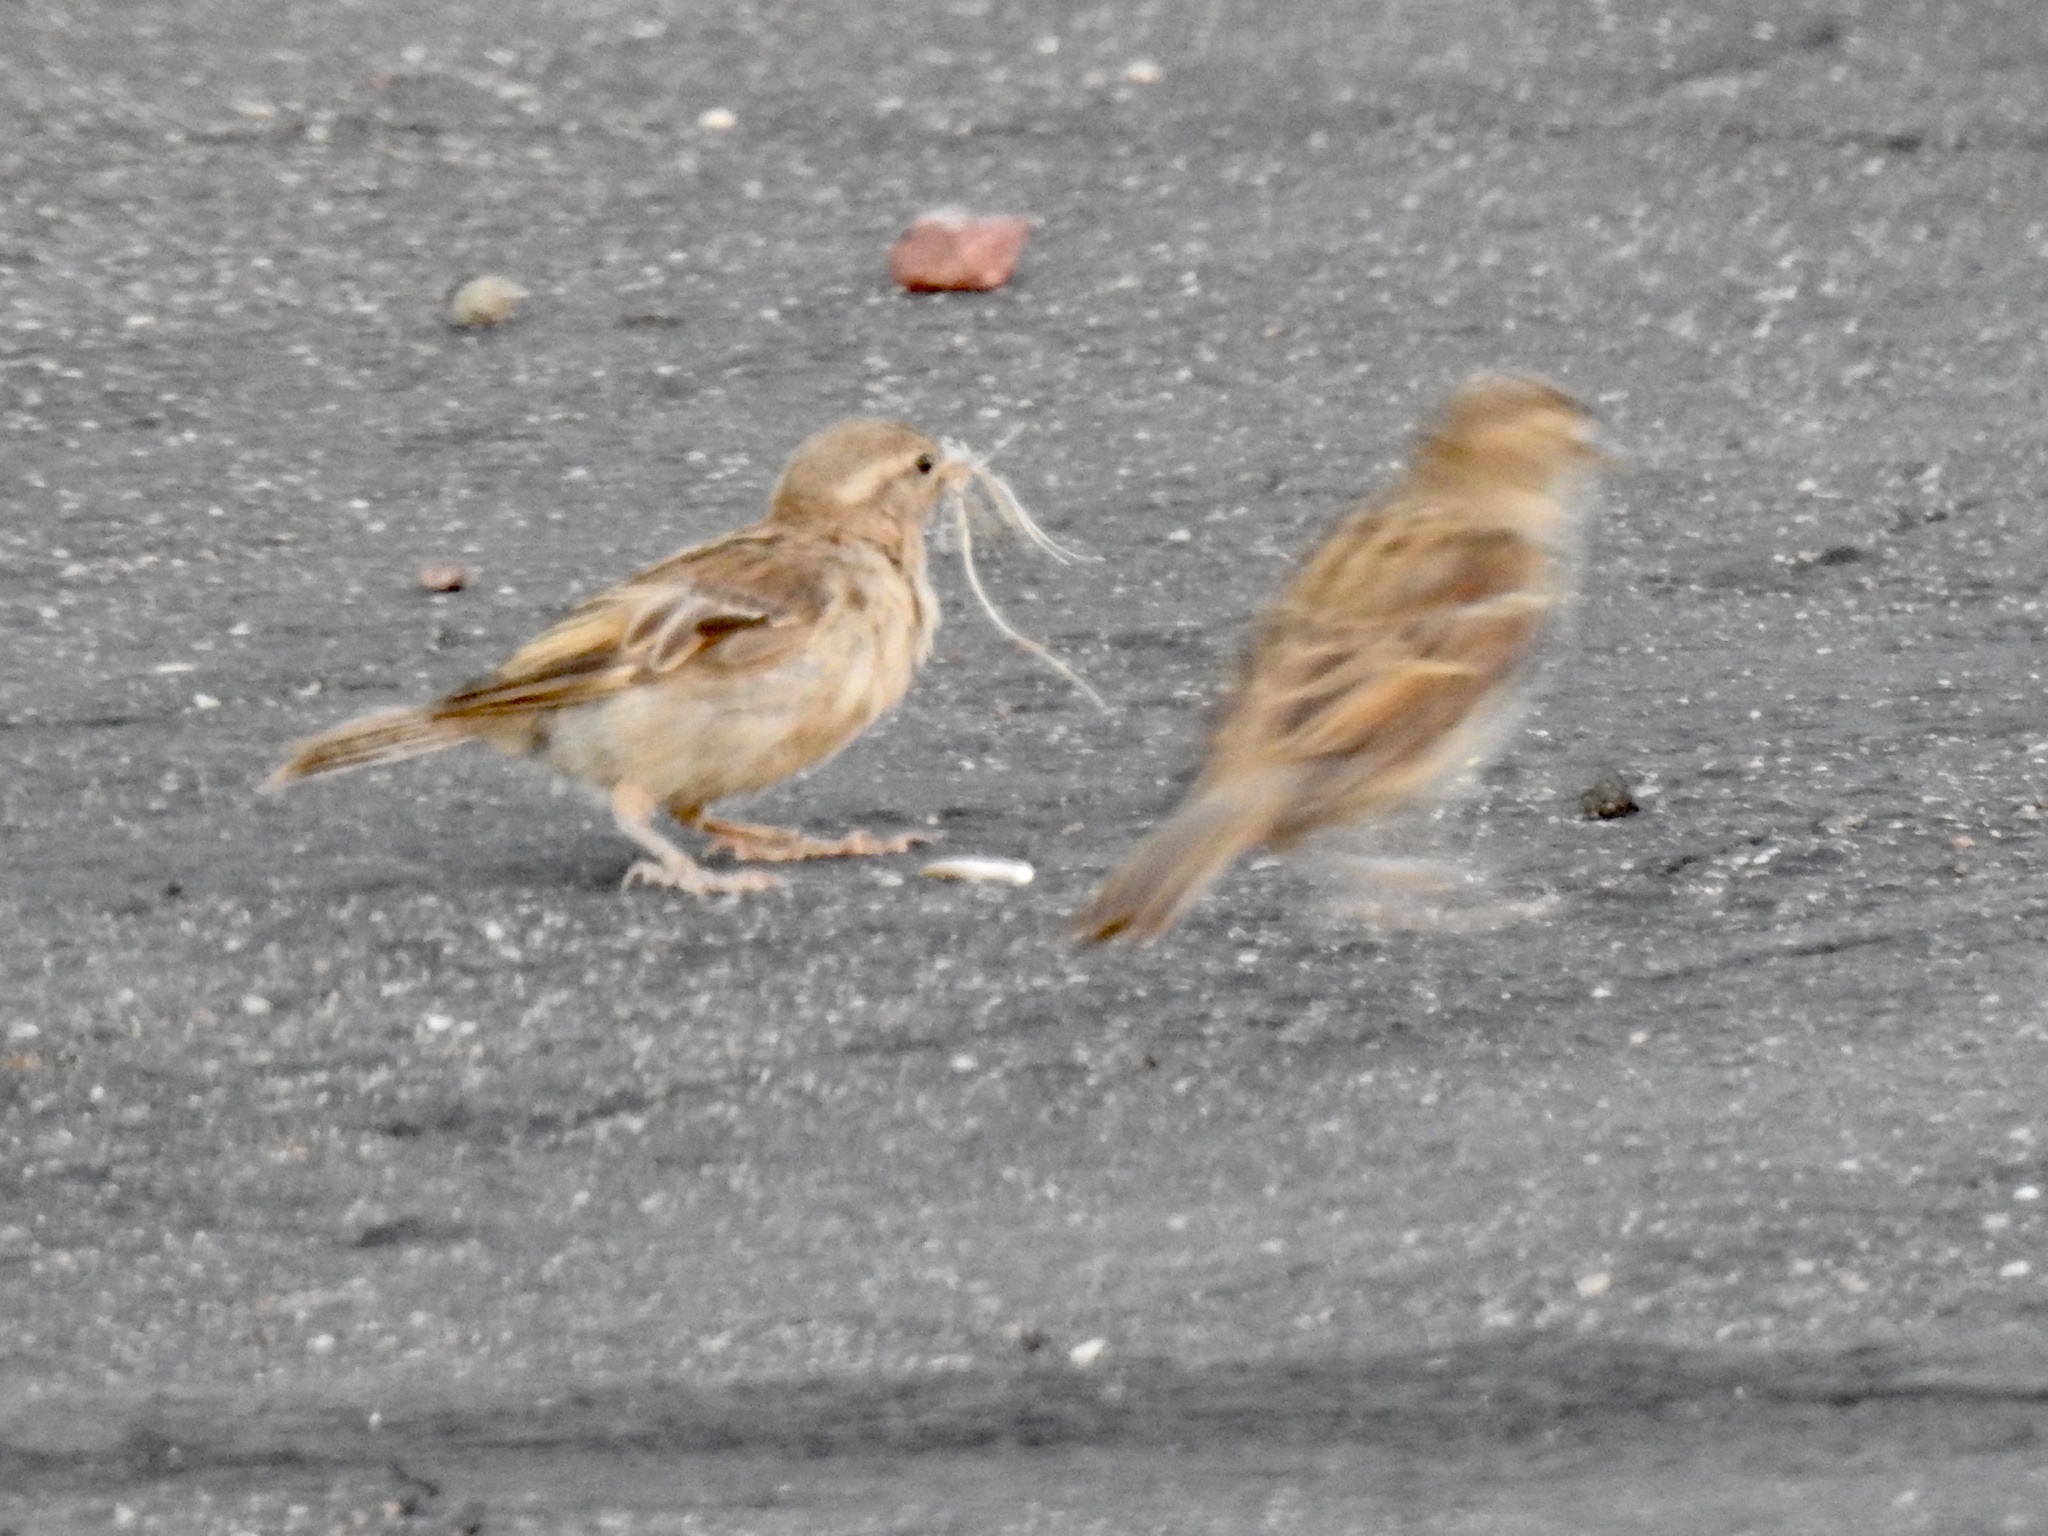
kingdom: Animalia
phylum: Chordata
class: Aves
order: Passeriformes
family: Passeridae
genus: Passer
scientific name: Passer domesticus
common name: House sparrow
